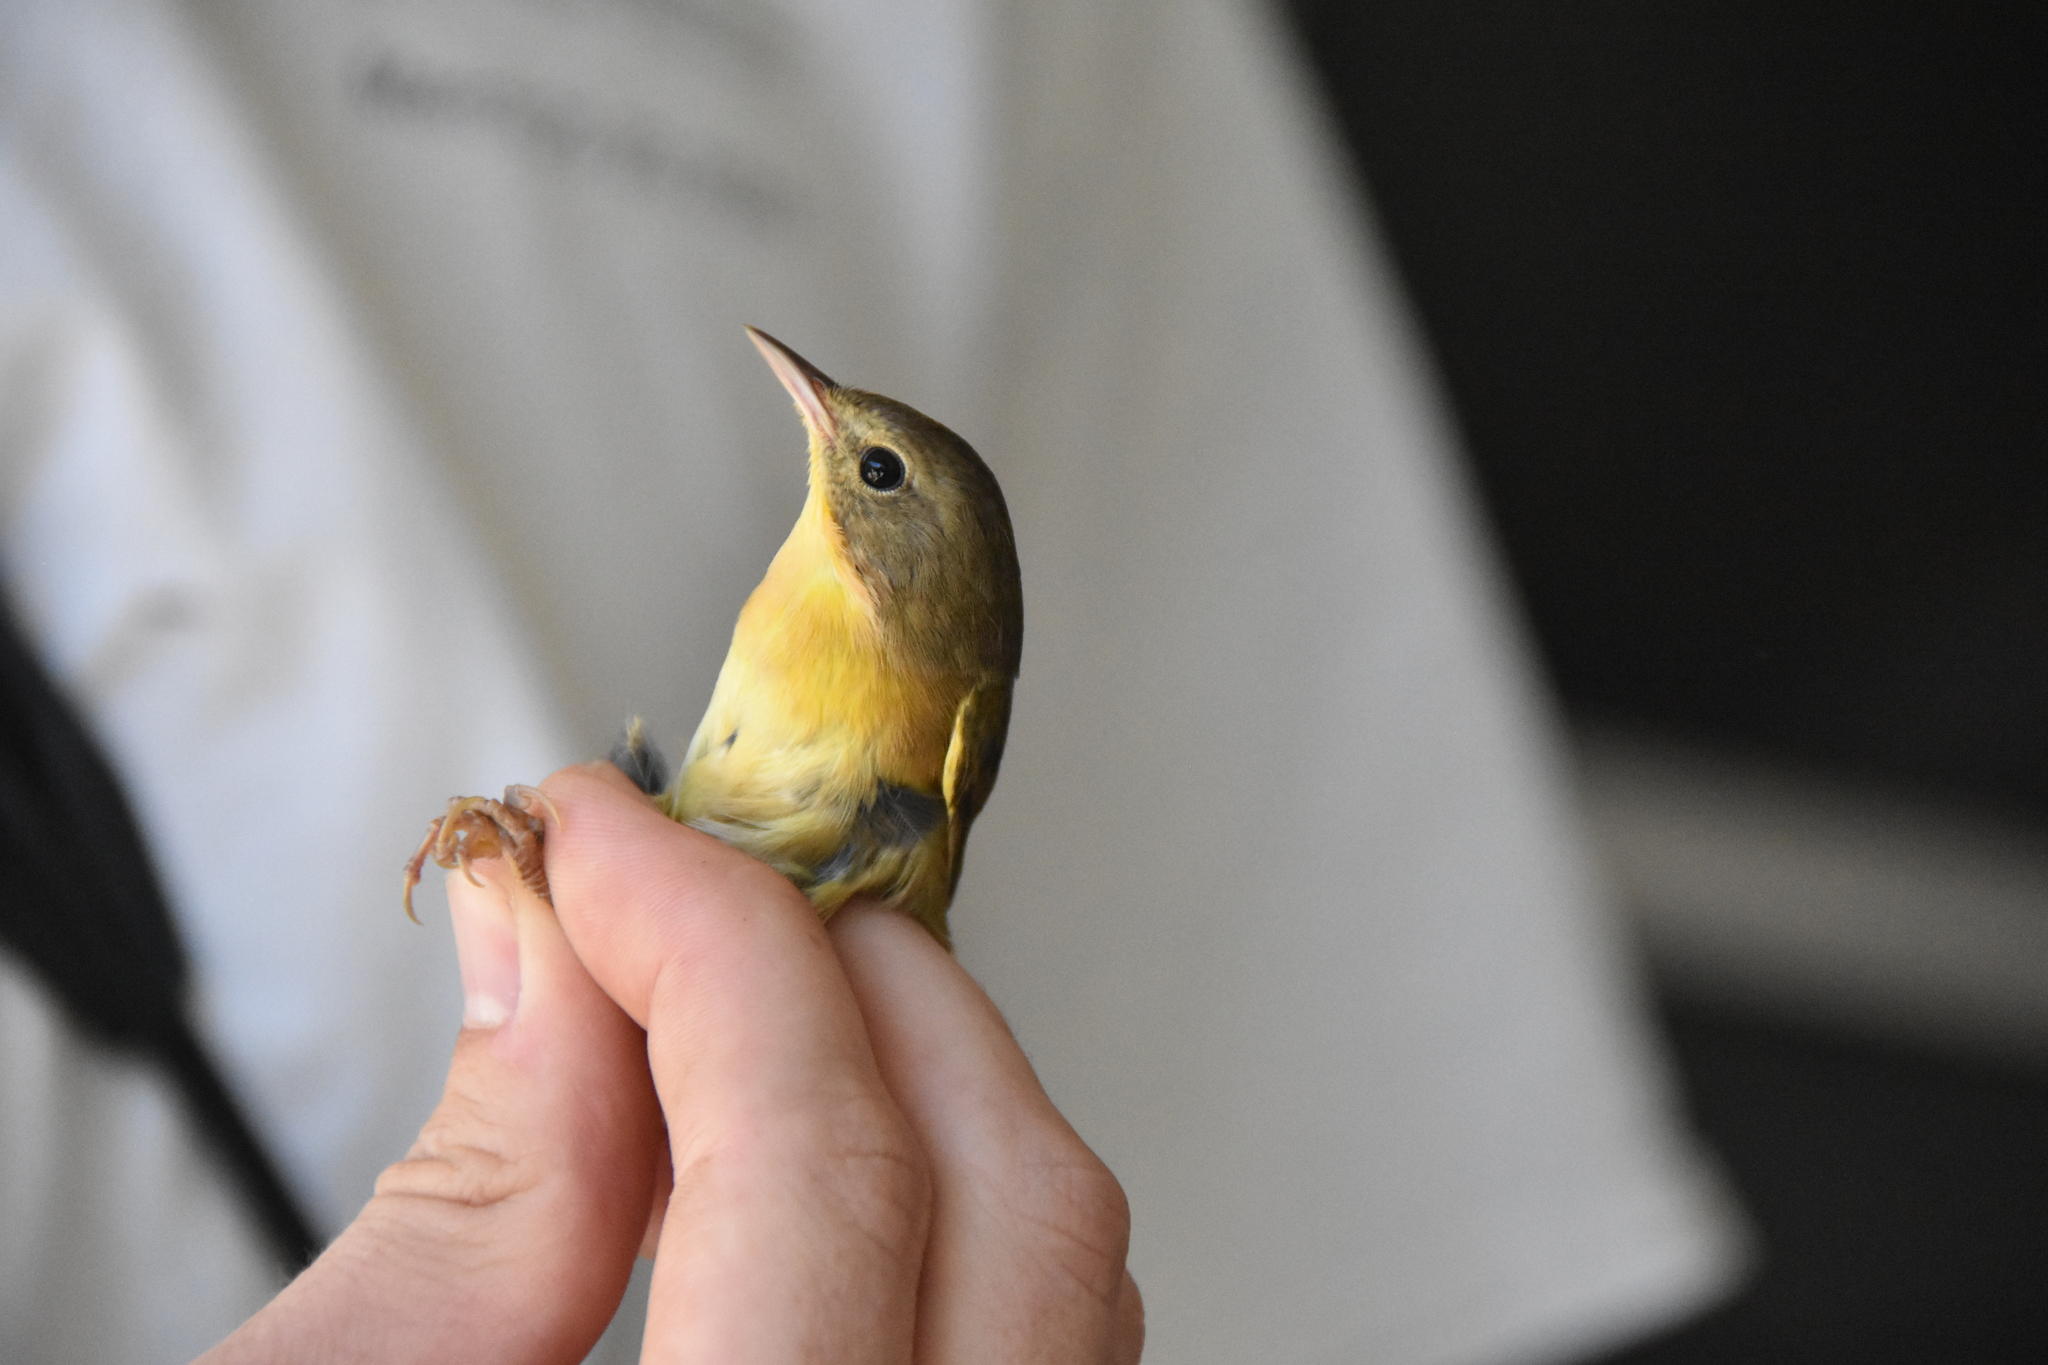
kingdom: Animalia
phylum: Chordata
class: Aves
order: Passeriformes
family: Parulidae
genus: Geothlypis
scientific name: Geothlypis trichas
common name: Common yellowthroat
